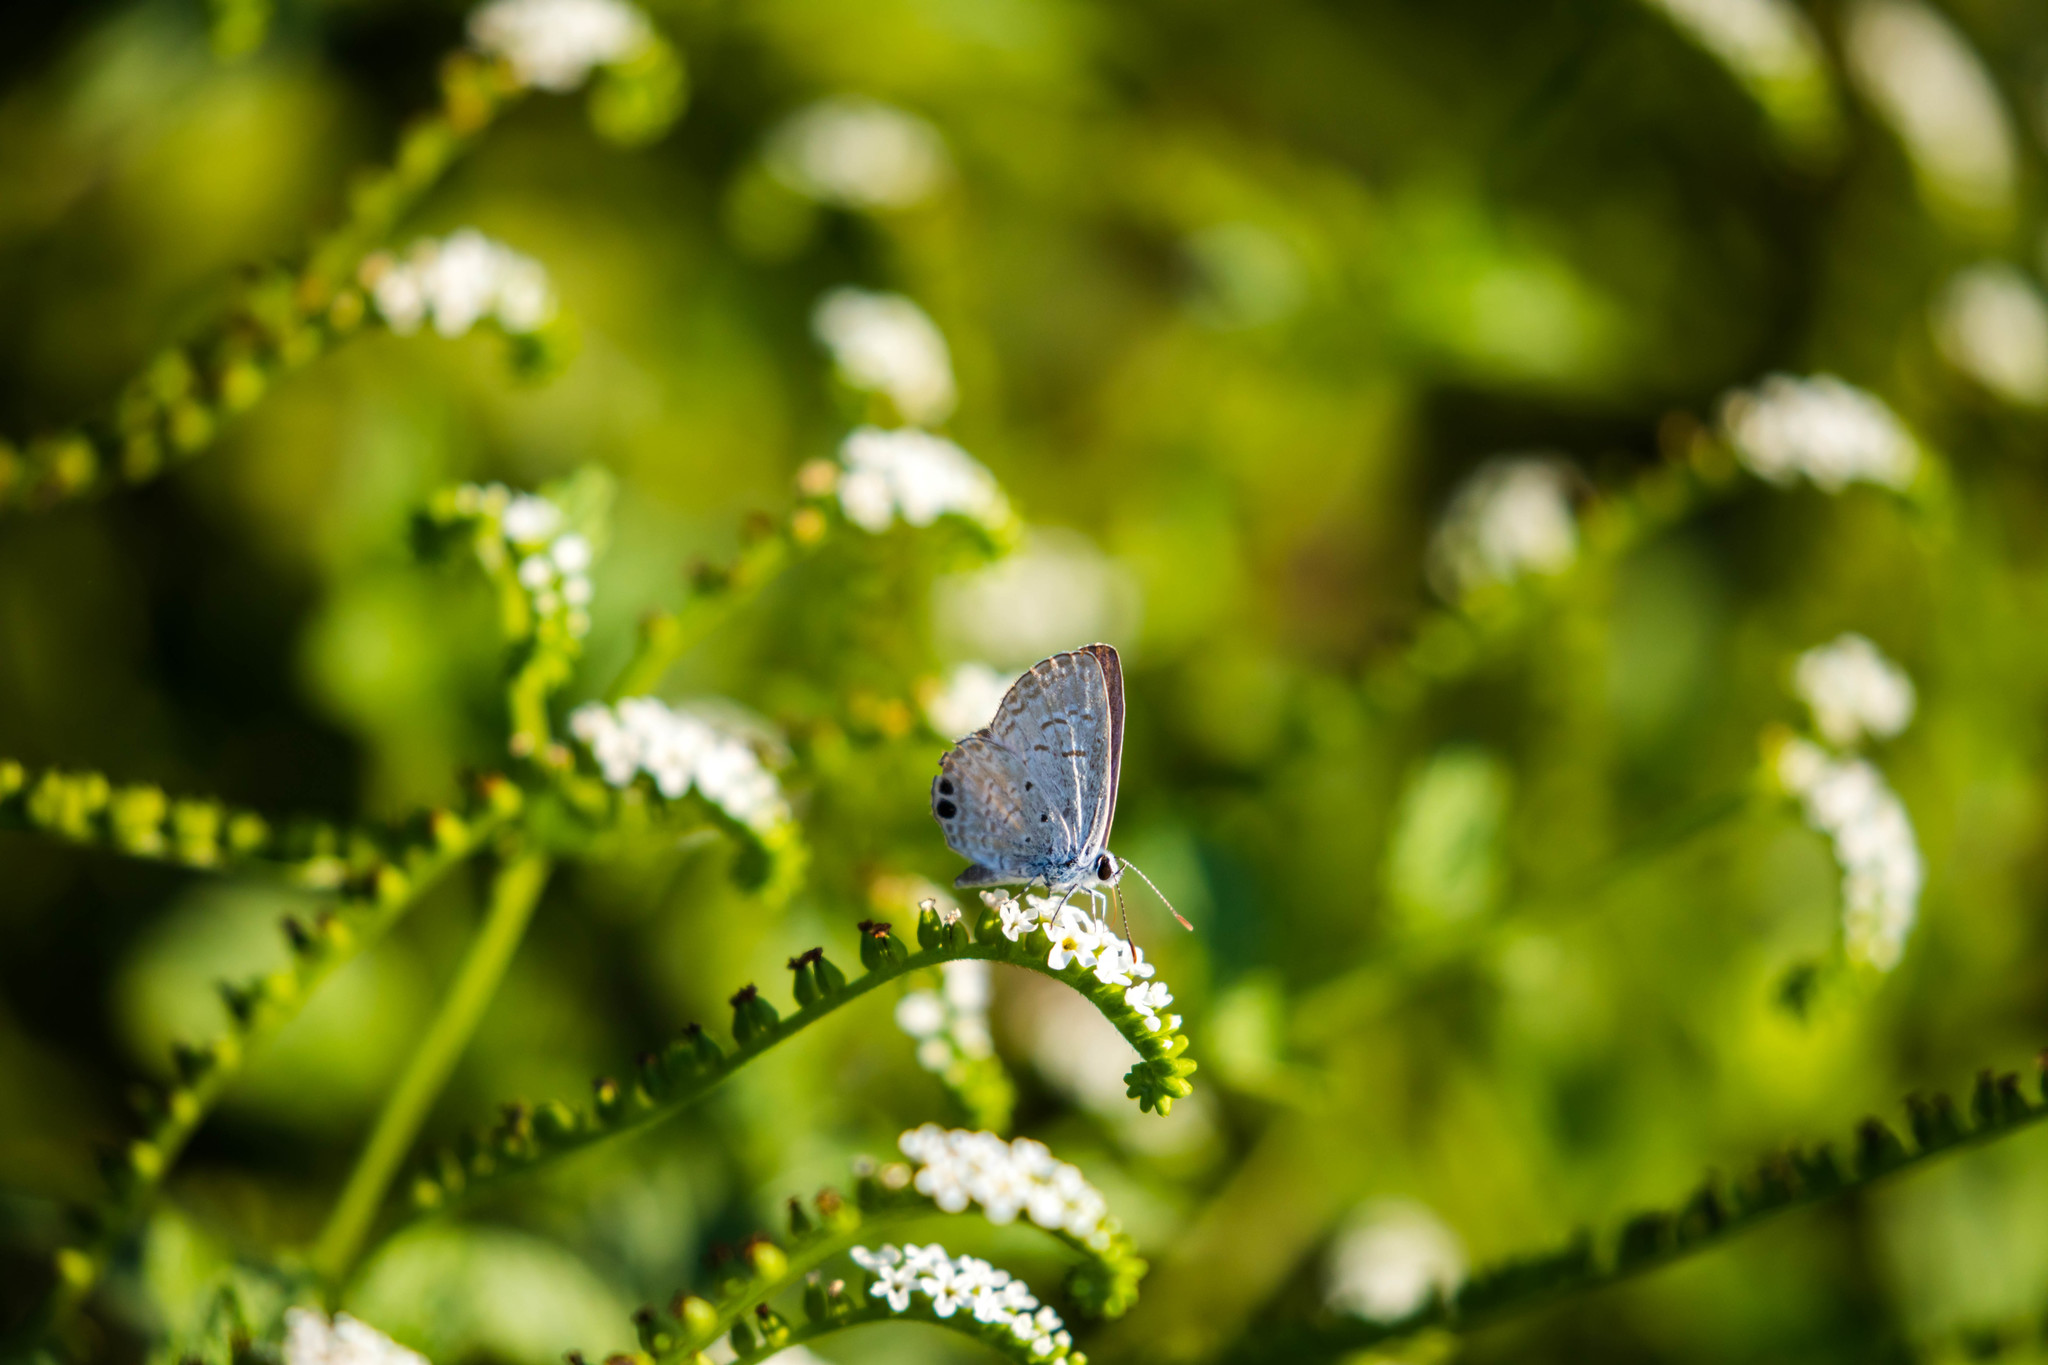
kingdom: Animalia
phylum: Arthropoda
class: Insecta
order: Lepidoptera
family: Lycaenidae
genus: Hemiargus
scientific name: Hemiargus ceraunus
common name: Ceraunus blue
